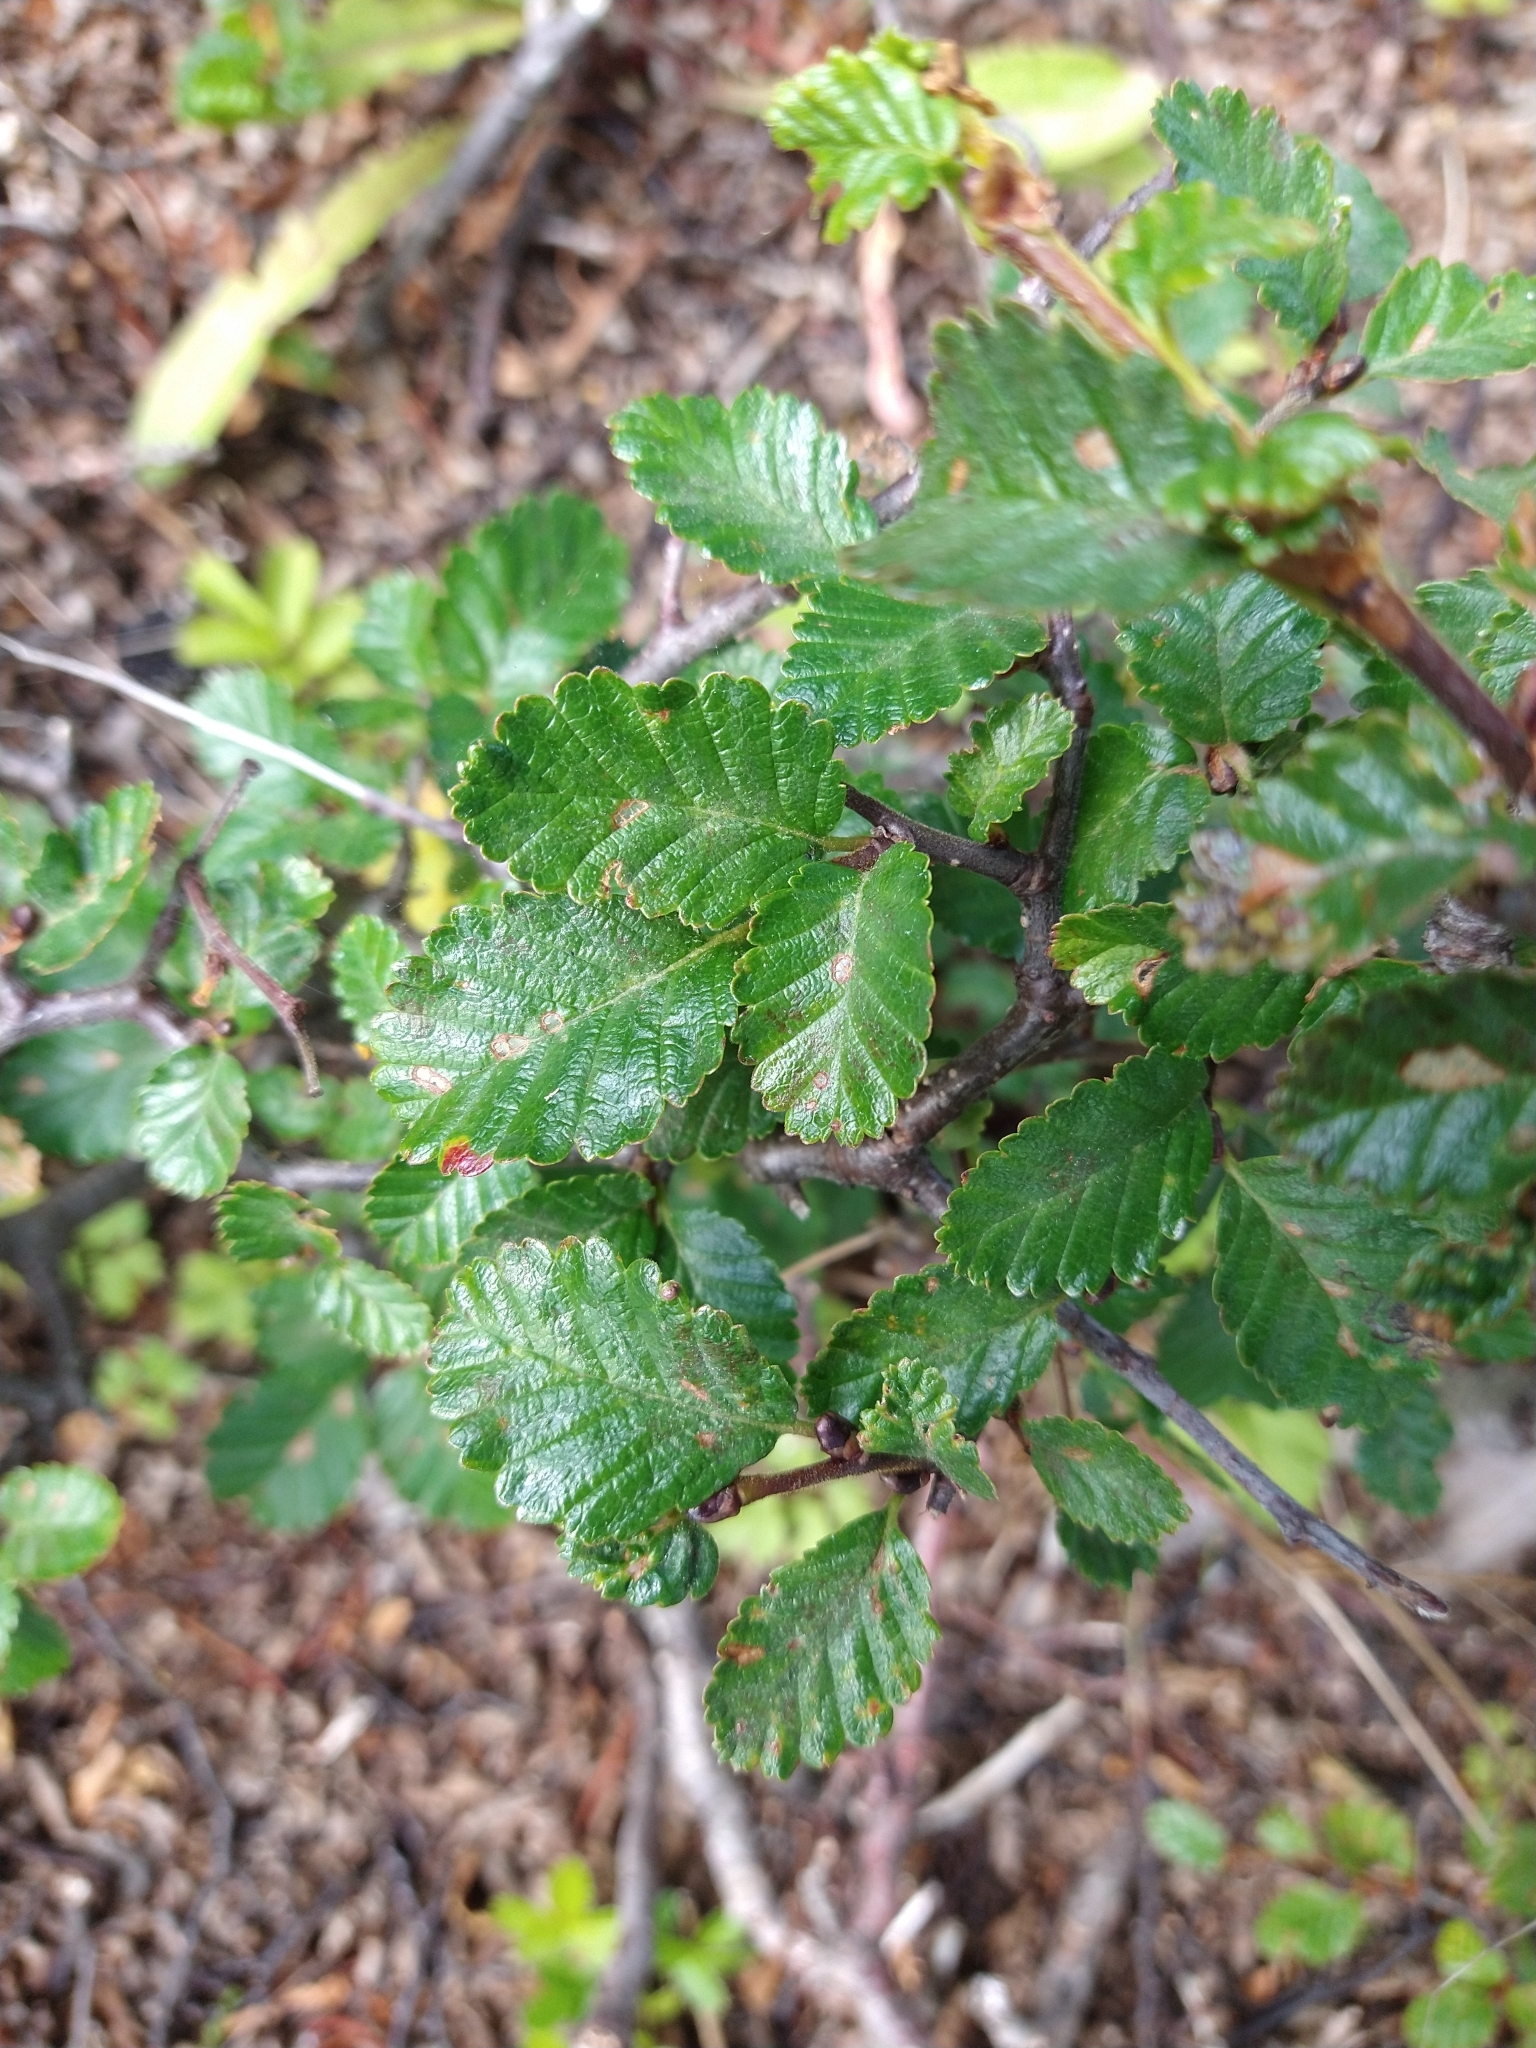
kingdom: Plantae
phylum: Tracheophyta
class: Magnoliopsida
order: Fagales
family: Nothofagaceae
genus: Nothofagus
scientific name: Nothofagus pumilio
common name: Lenga beech
